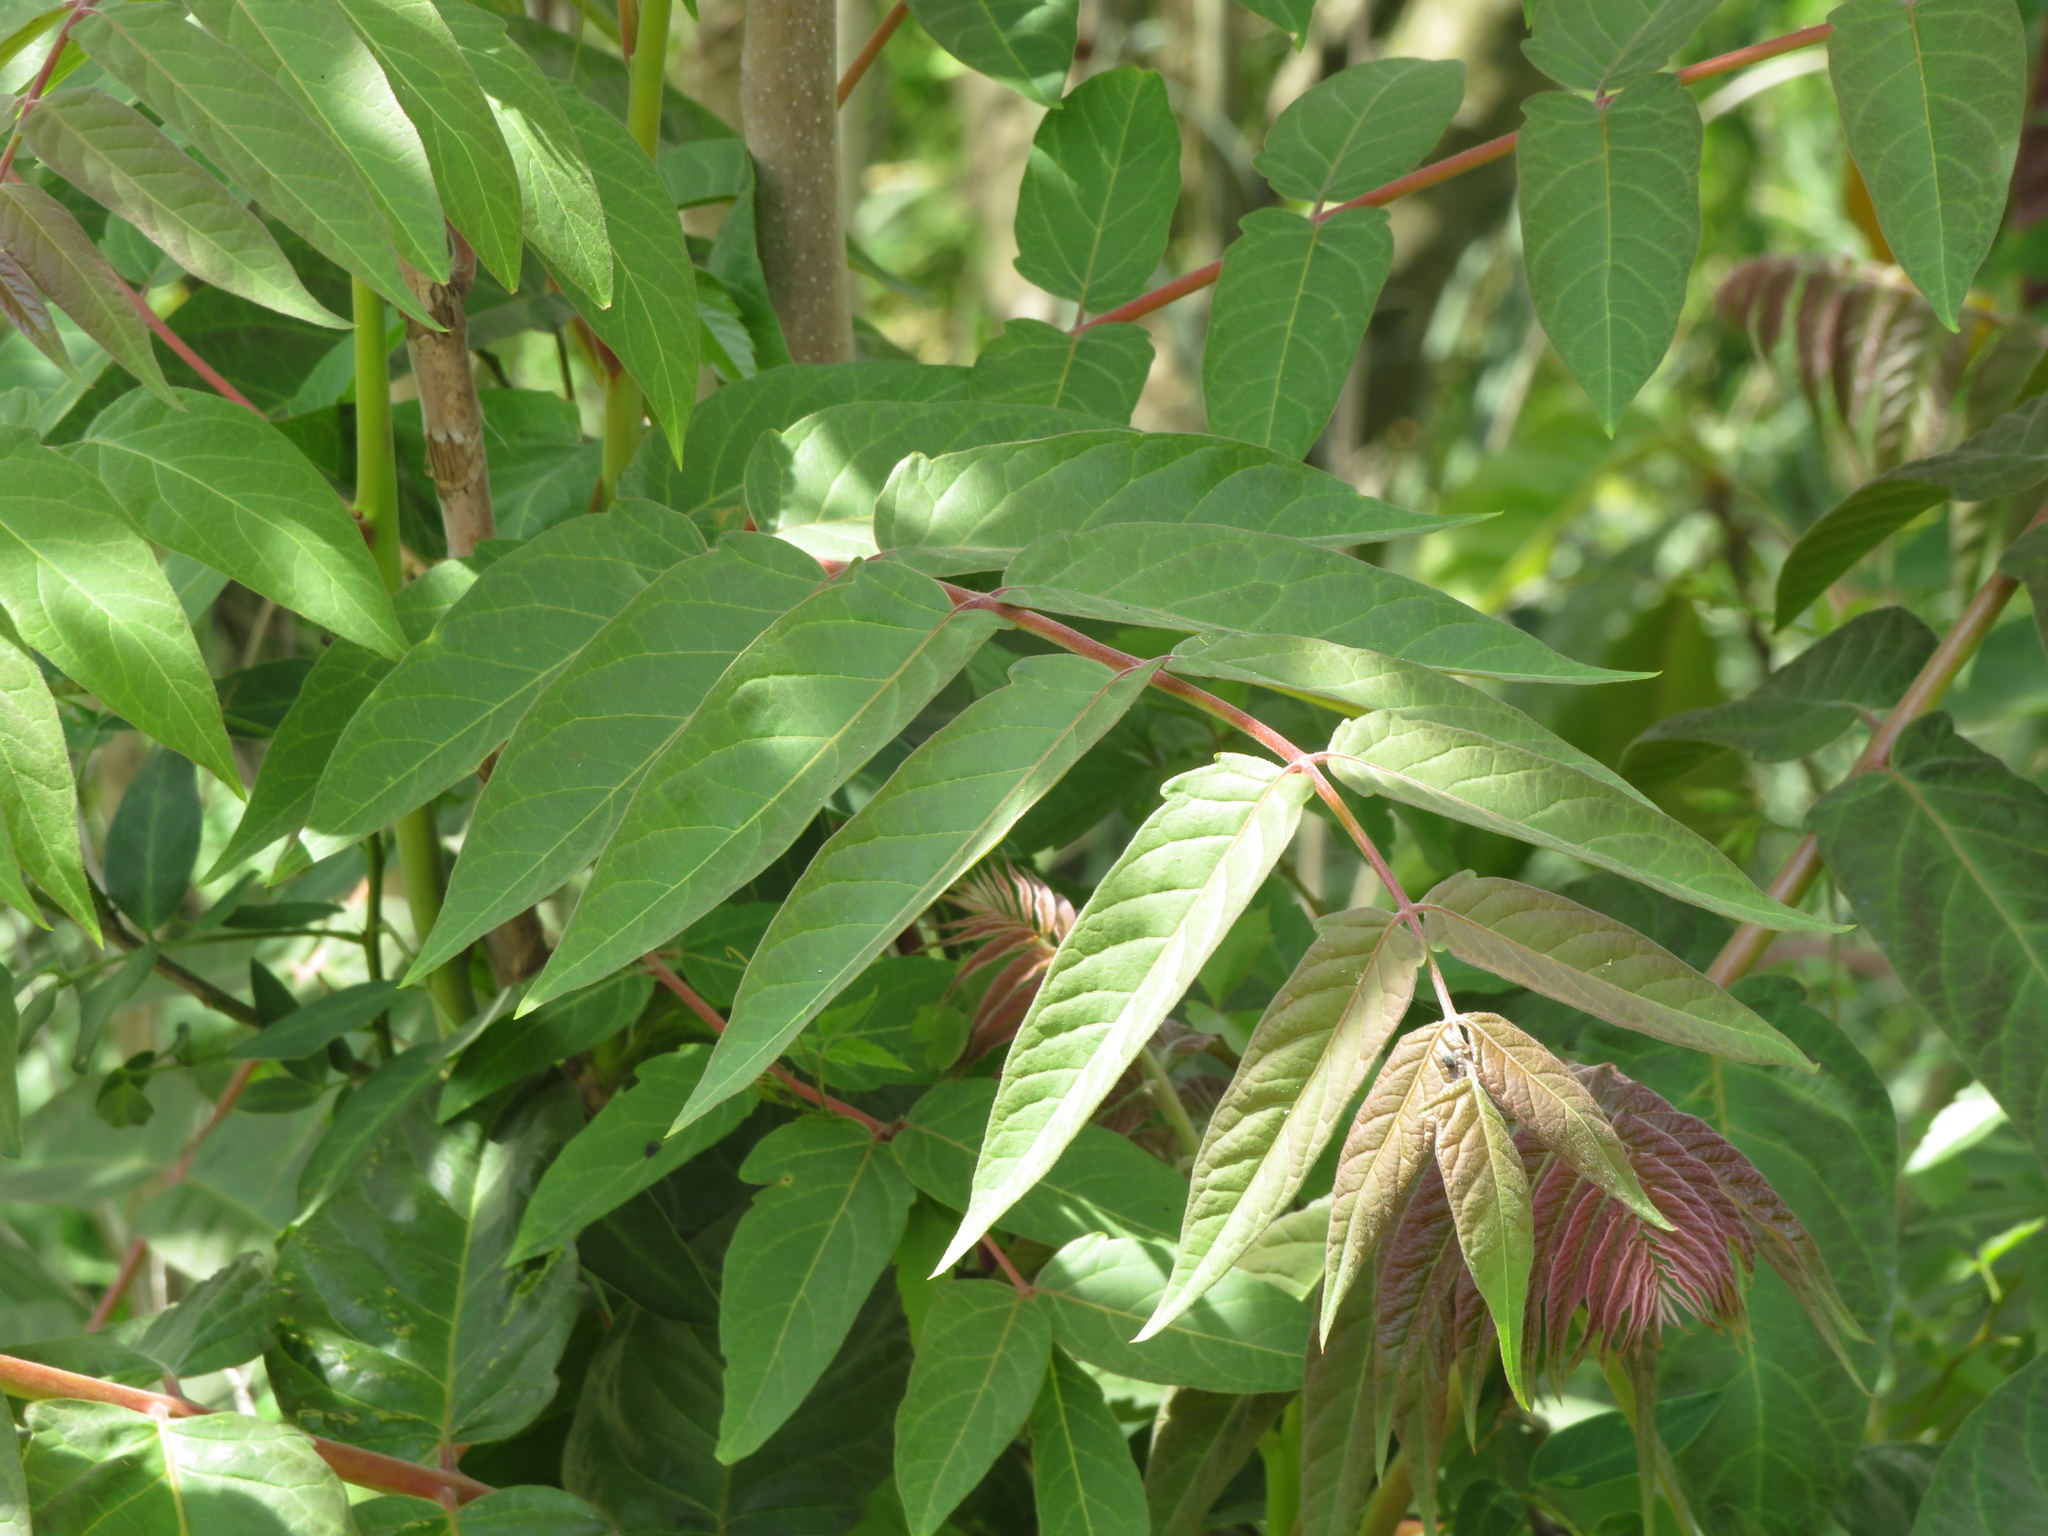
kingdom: Plantae
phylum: Tracheophyta
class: Magnoliopsida
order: Sapindales
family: Simaroubaceae
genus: Ailanthus
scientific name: Ailanthus altissima
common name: Tree-of-heaven
